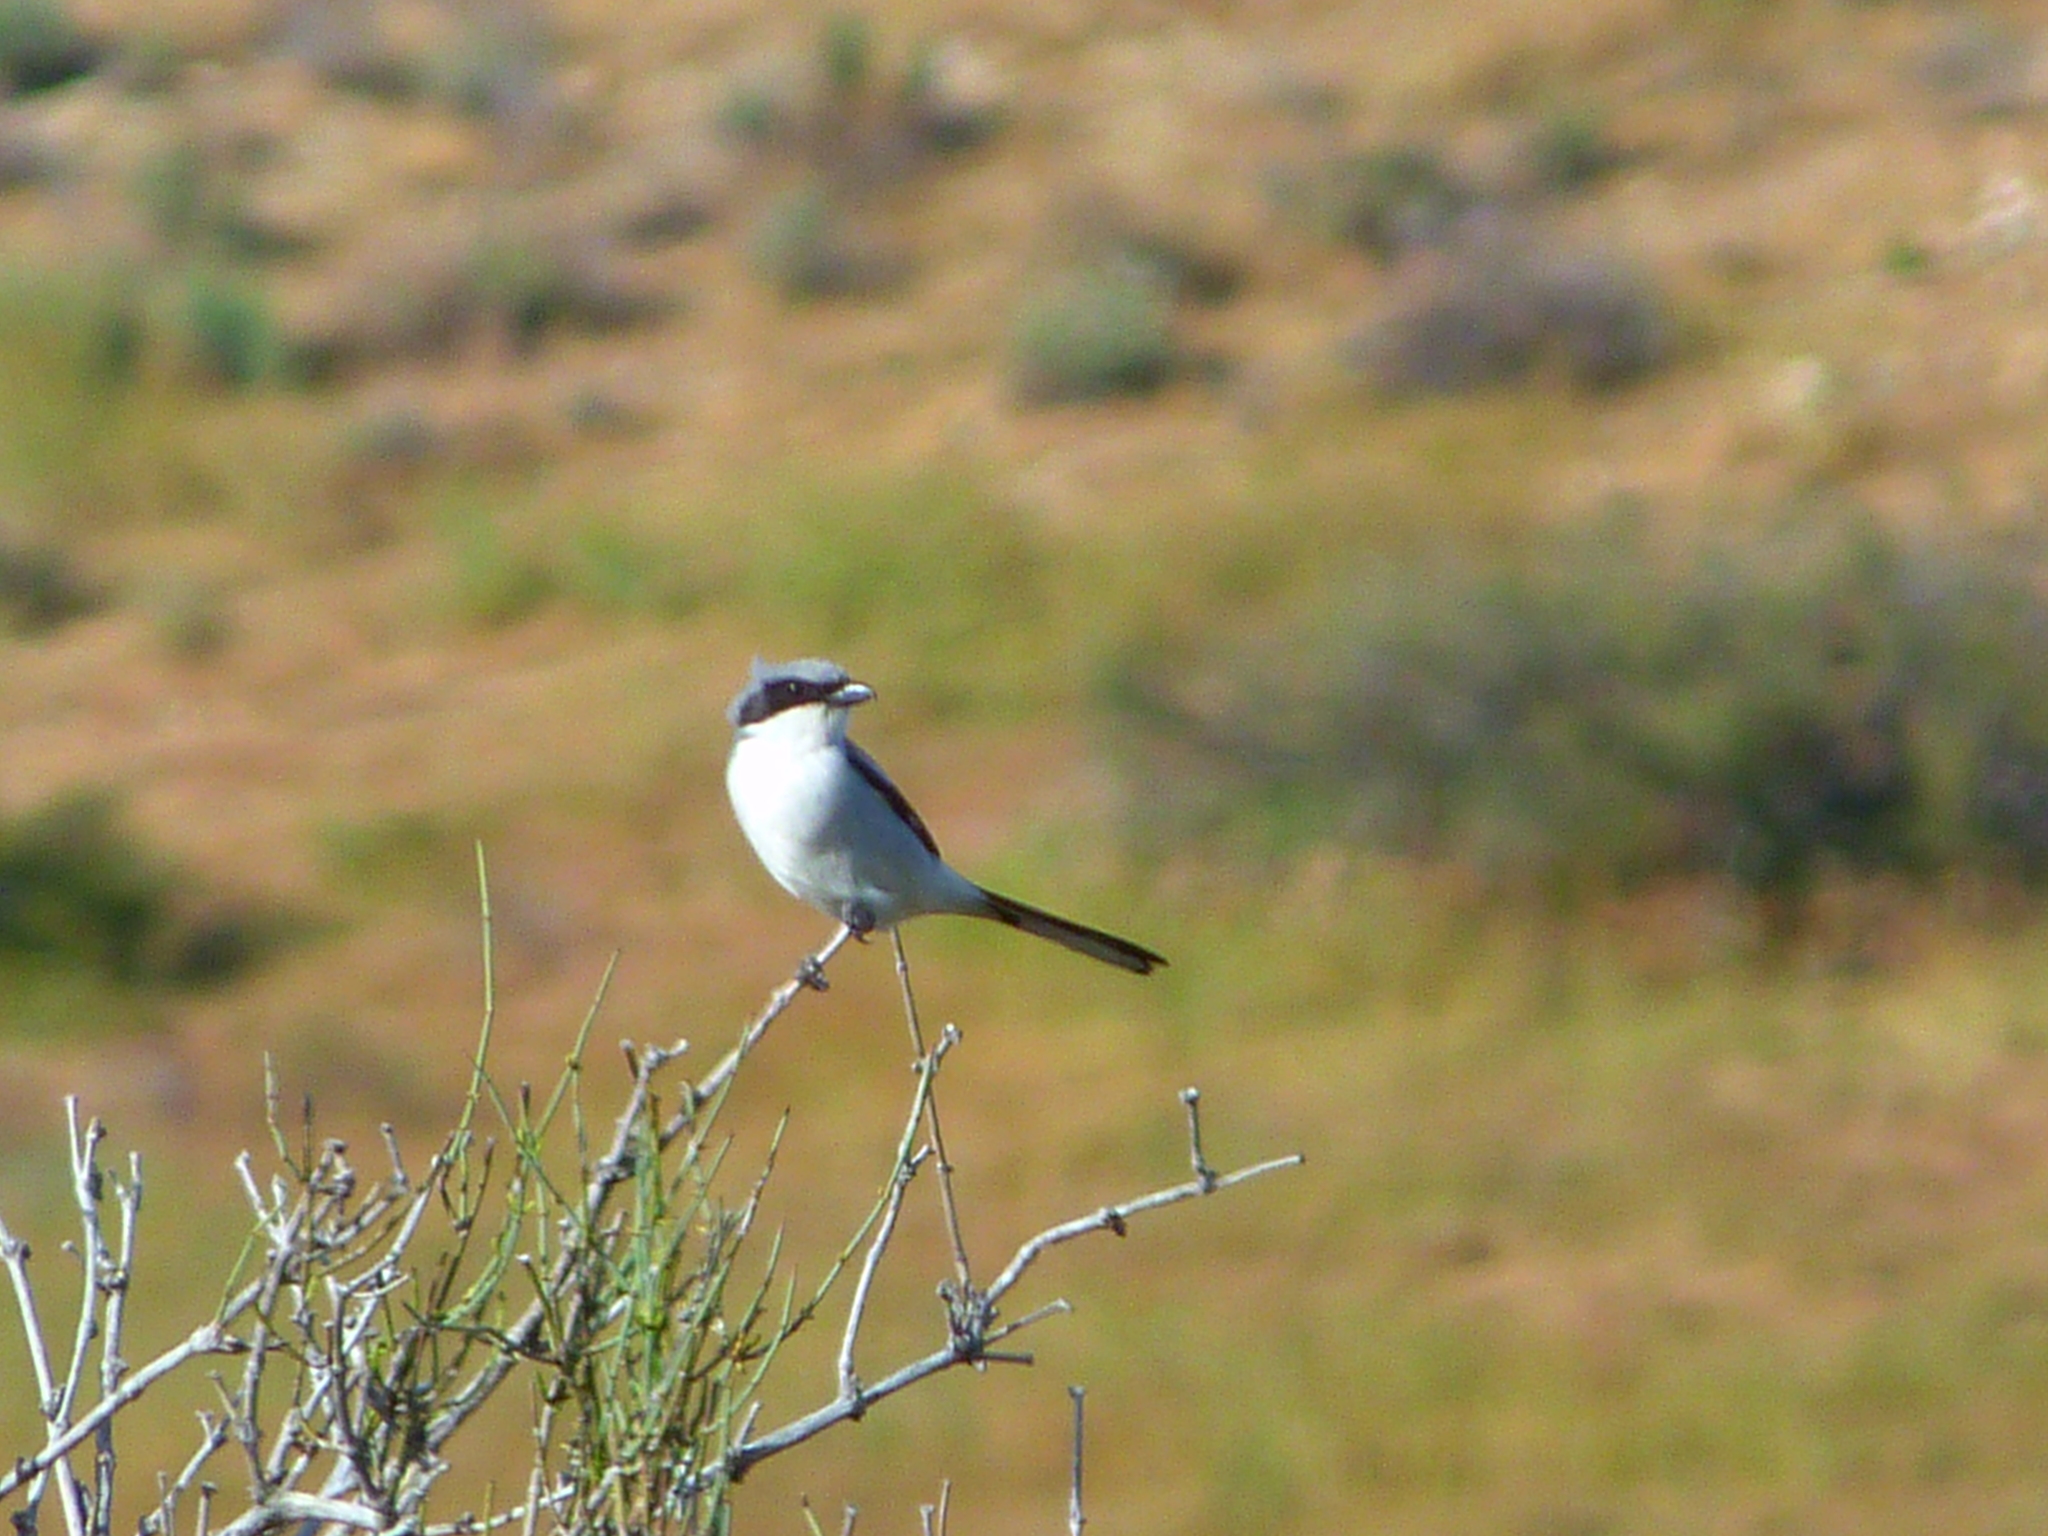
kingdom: Animalia
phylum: Chordata
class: Aves
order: Passeriformes
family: Laniidae
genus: Lanius
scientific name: Lanius ludovicianus
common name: Loggerhead shrike
